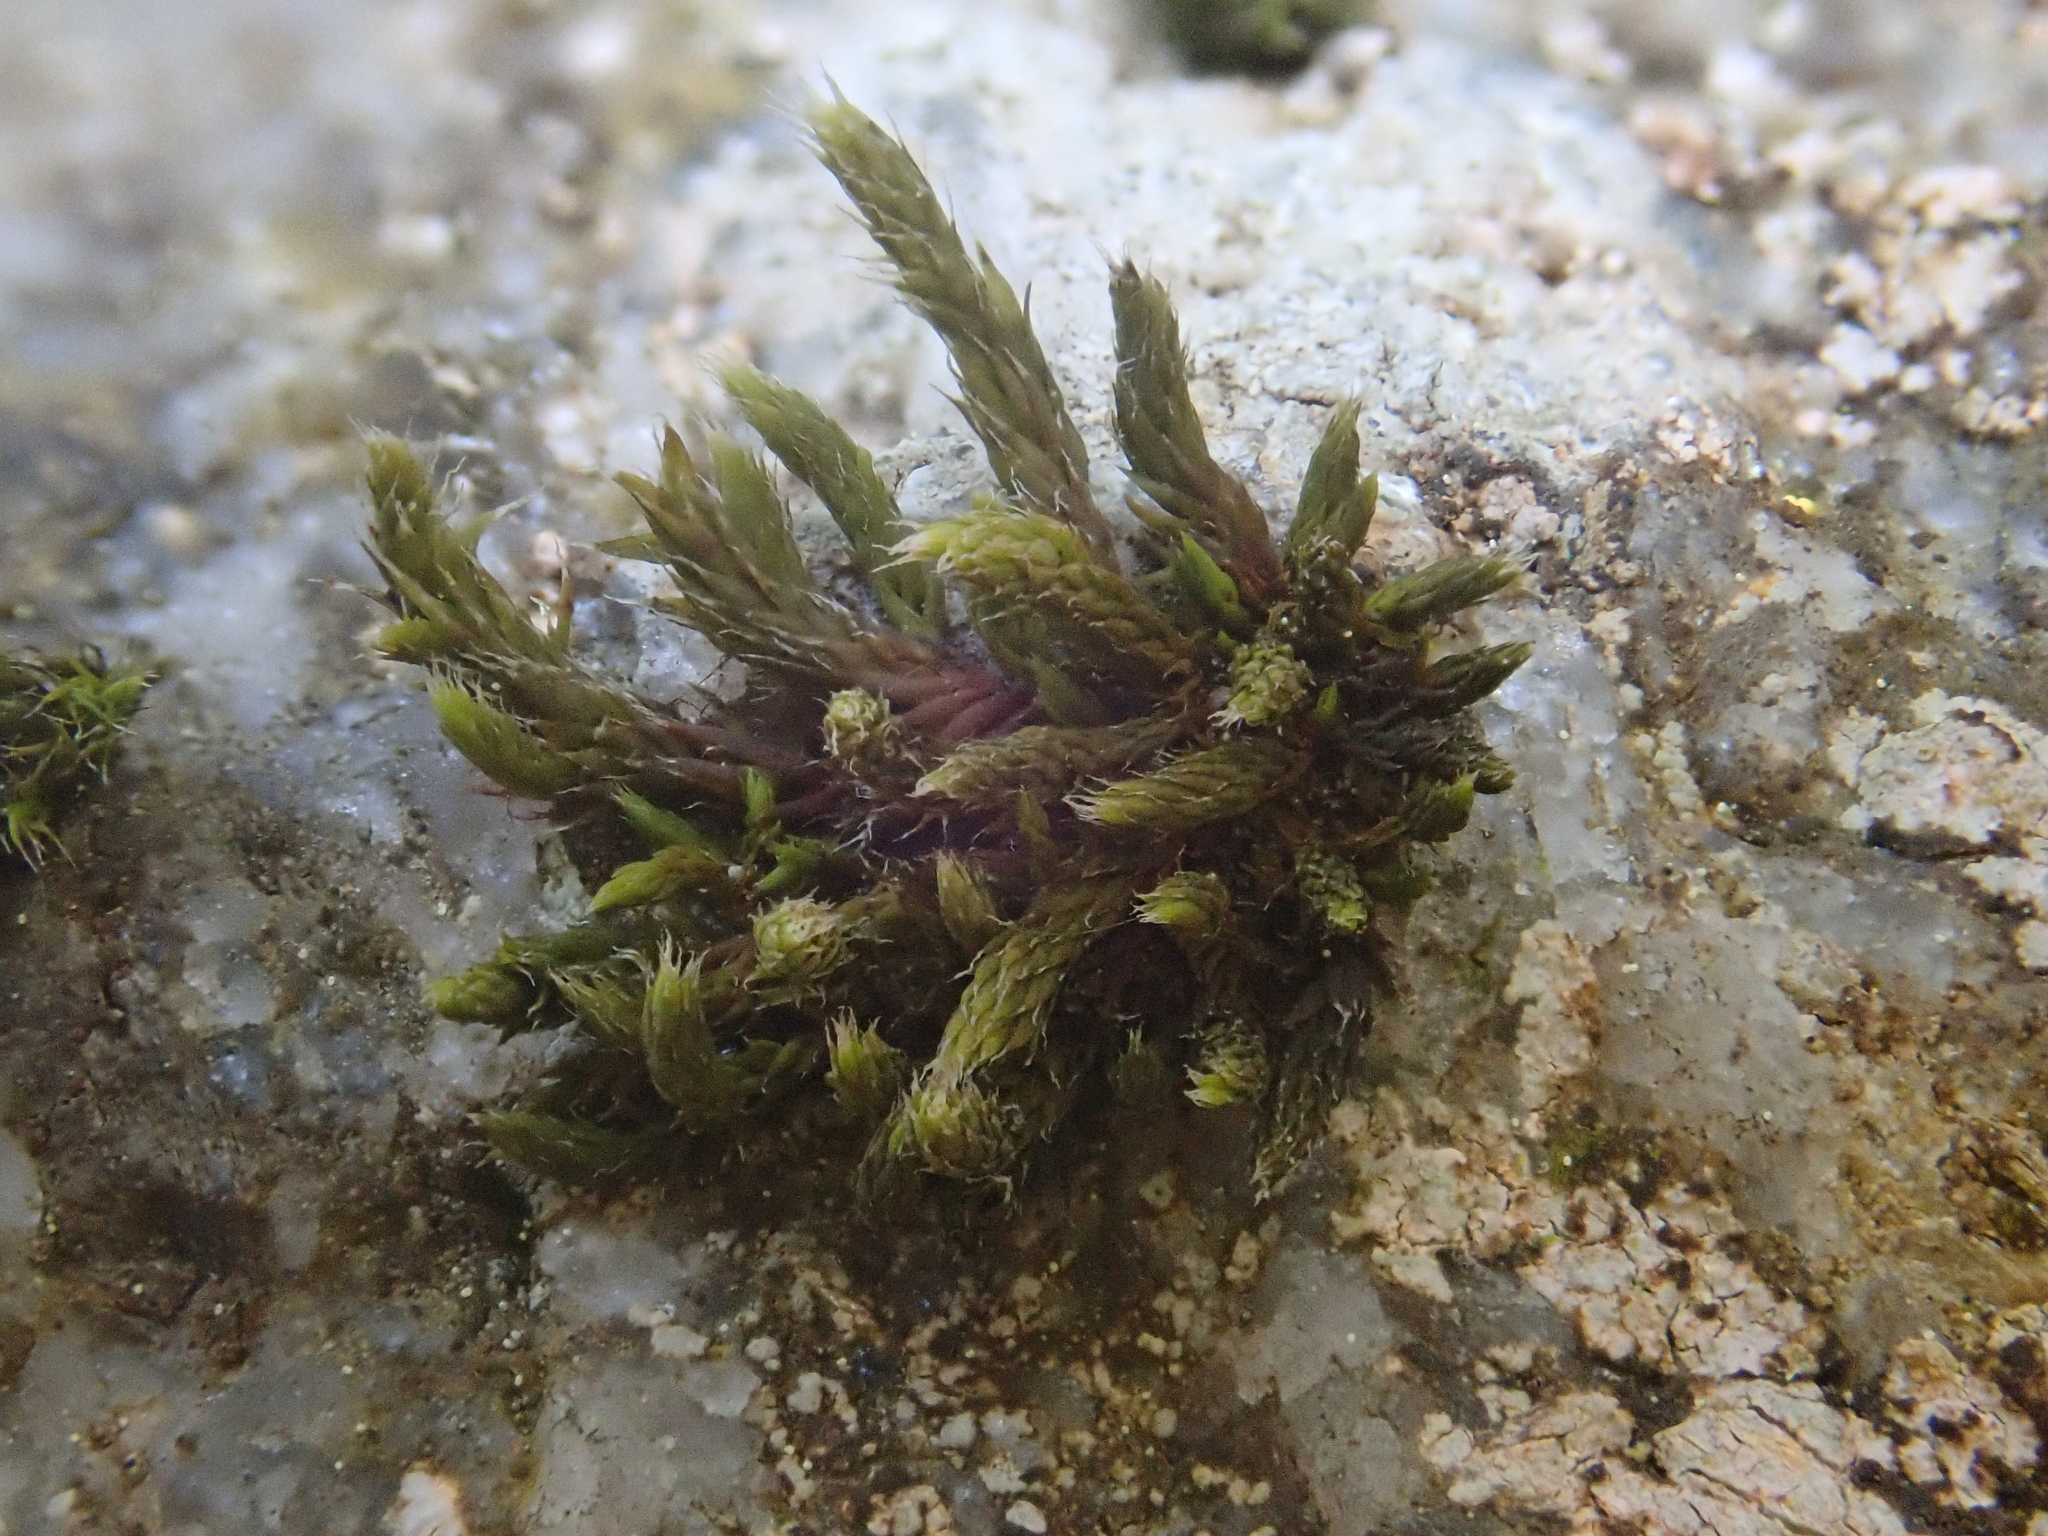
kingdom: Plantae
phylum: Bryophyta
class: Bryopsida
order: Hedwigiales
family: Hedwigiaceae
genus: Hedwigia
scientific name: Hedwigia ciliata
